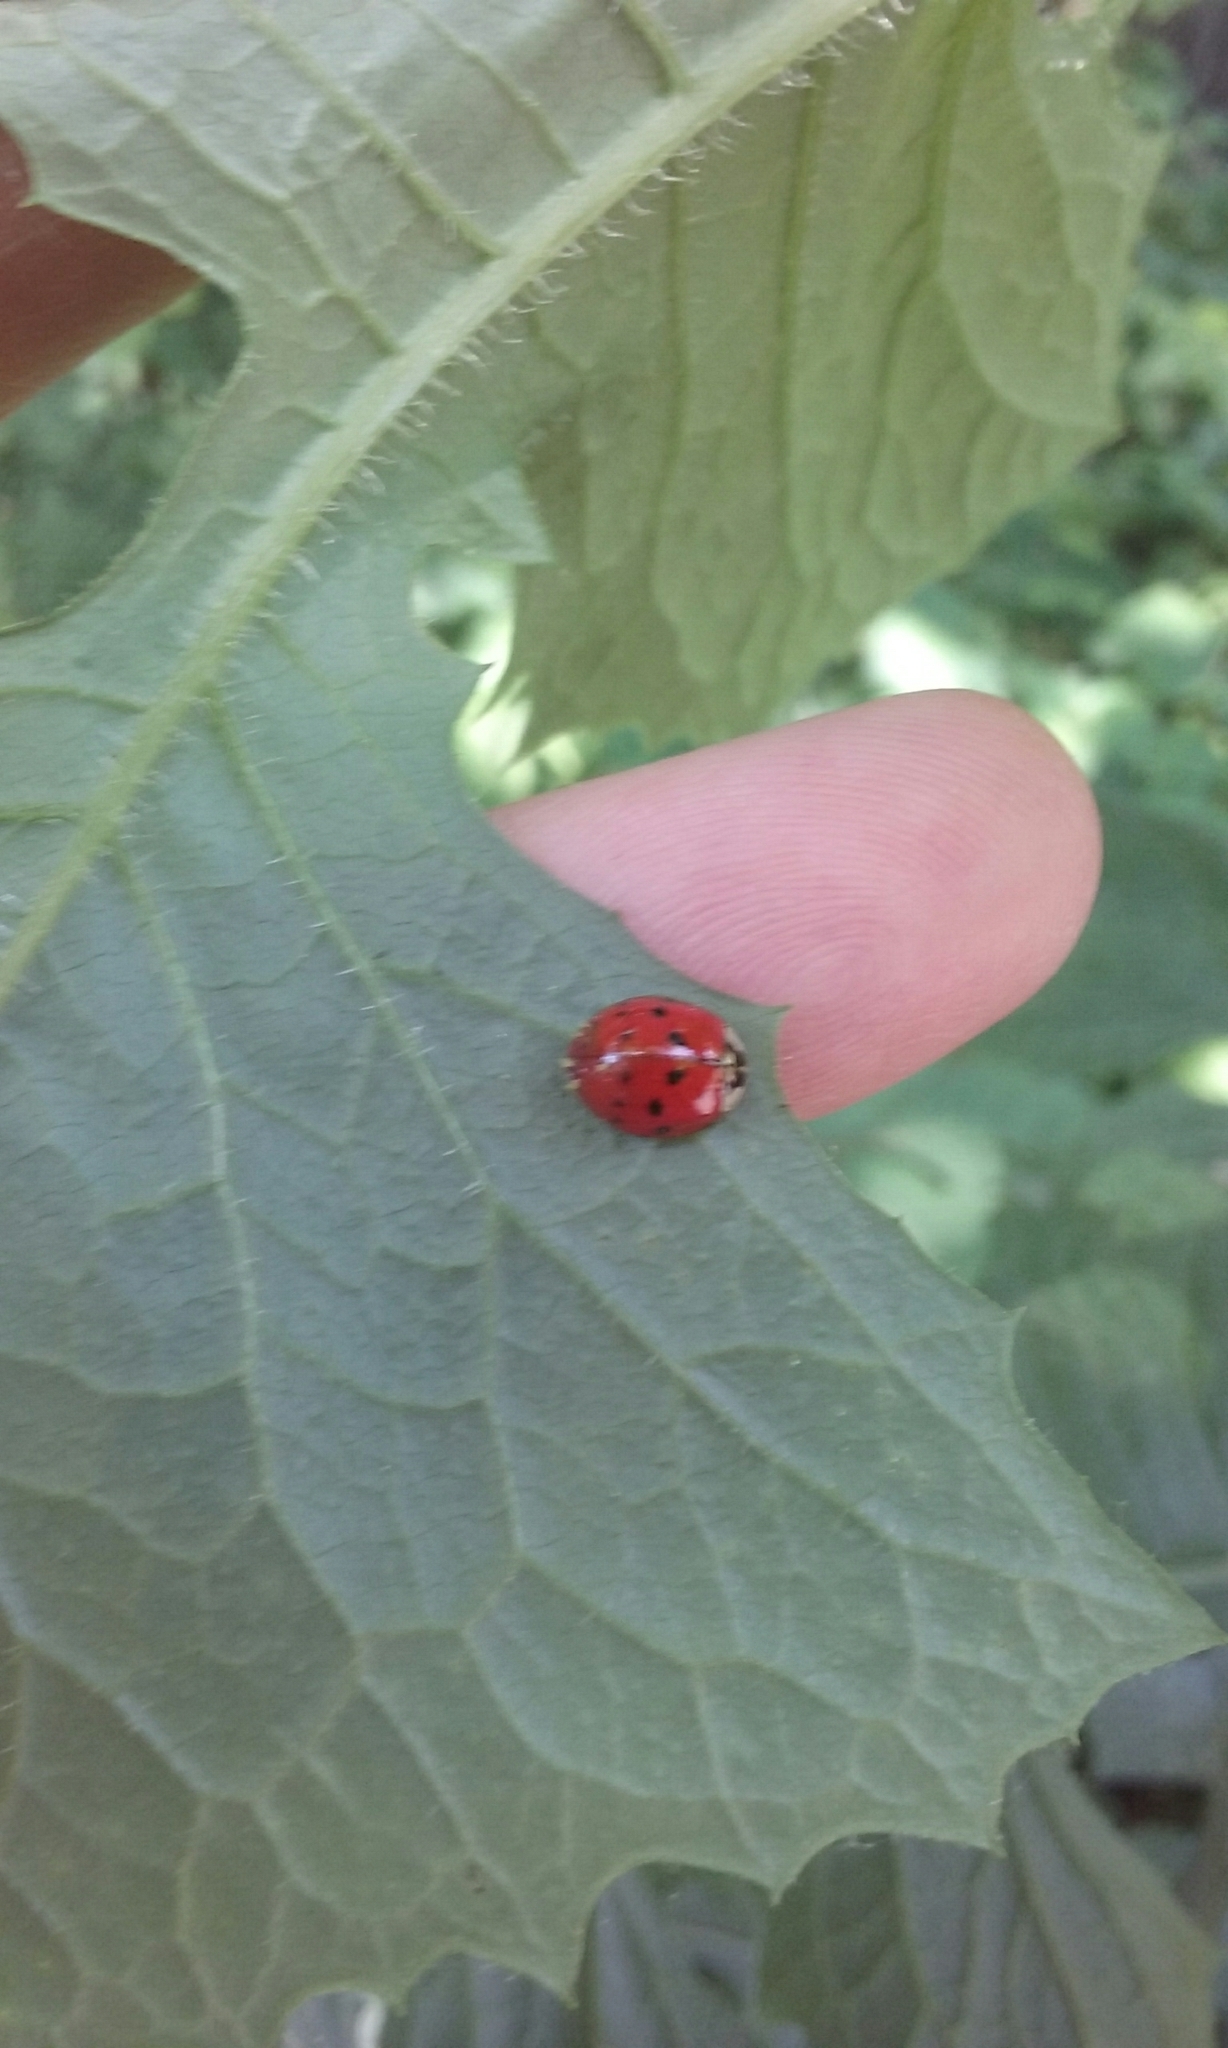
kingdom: Animalia
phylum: Arthropoda
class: Insecta
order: Coleoptera
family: Coccinellidae
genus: Harmonia
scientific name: Harmonia axyridis
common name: Harlequin ladybird
